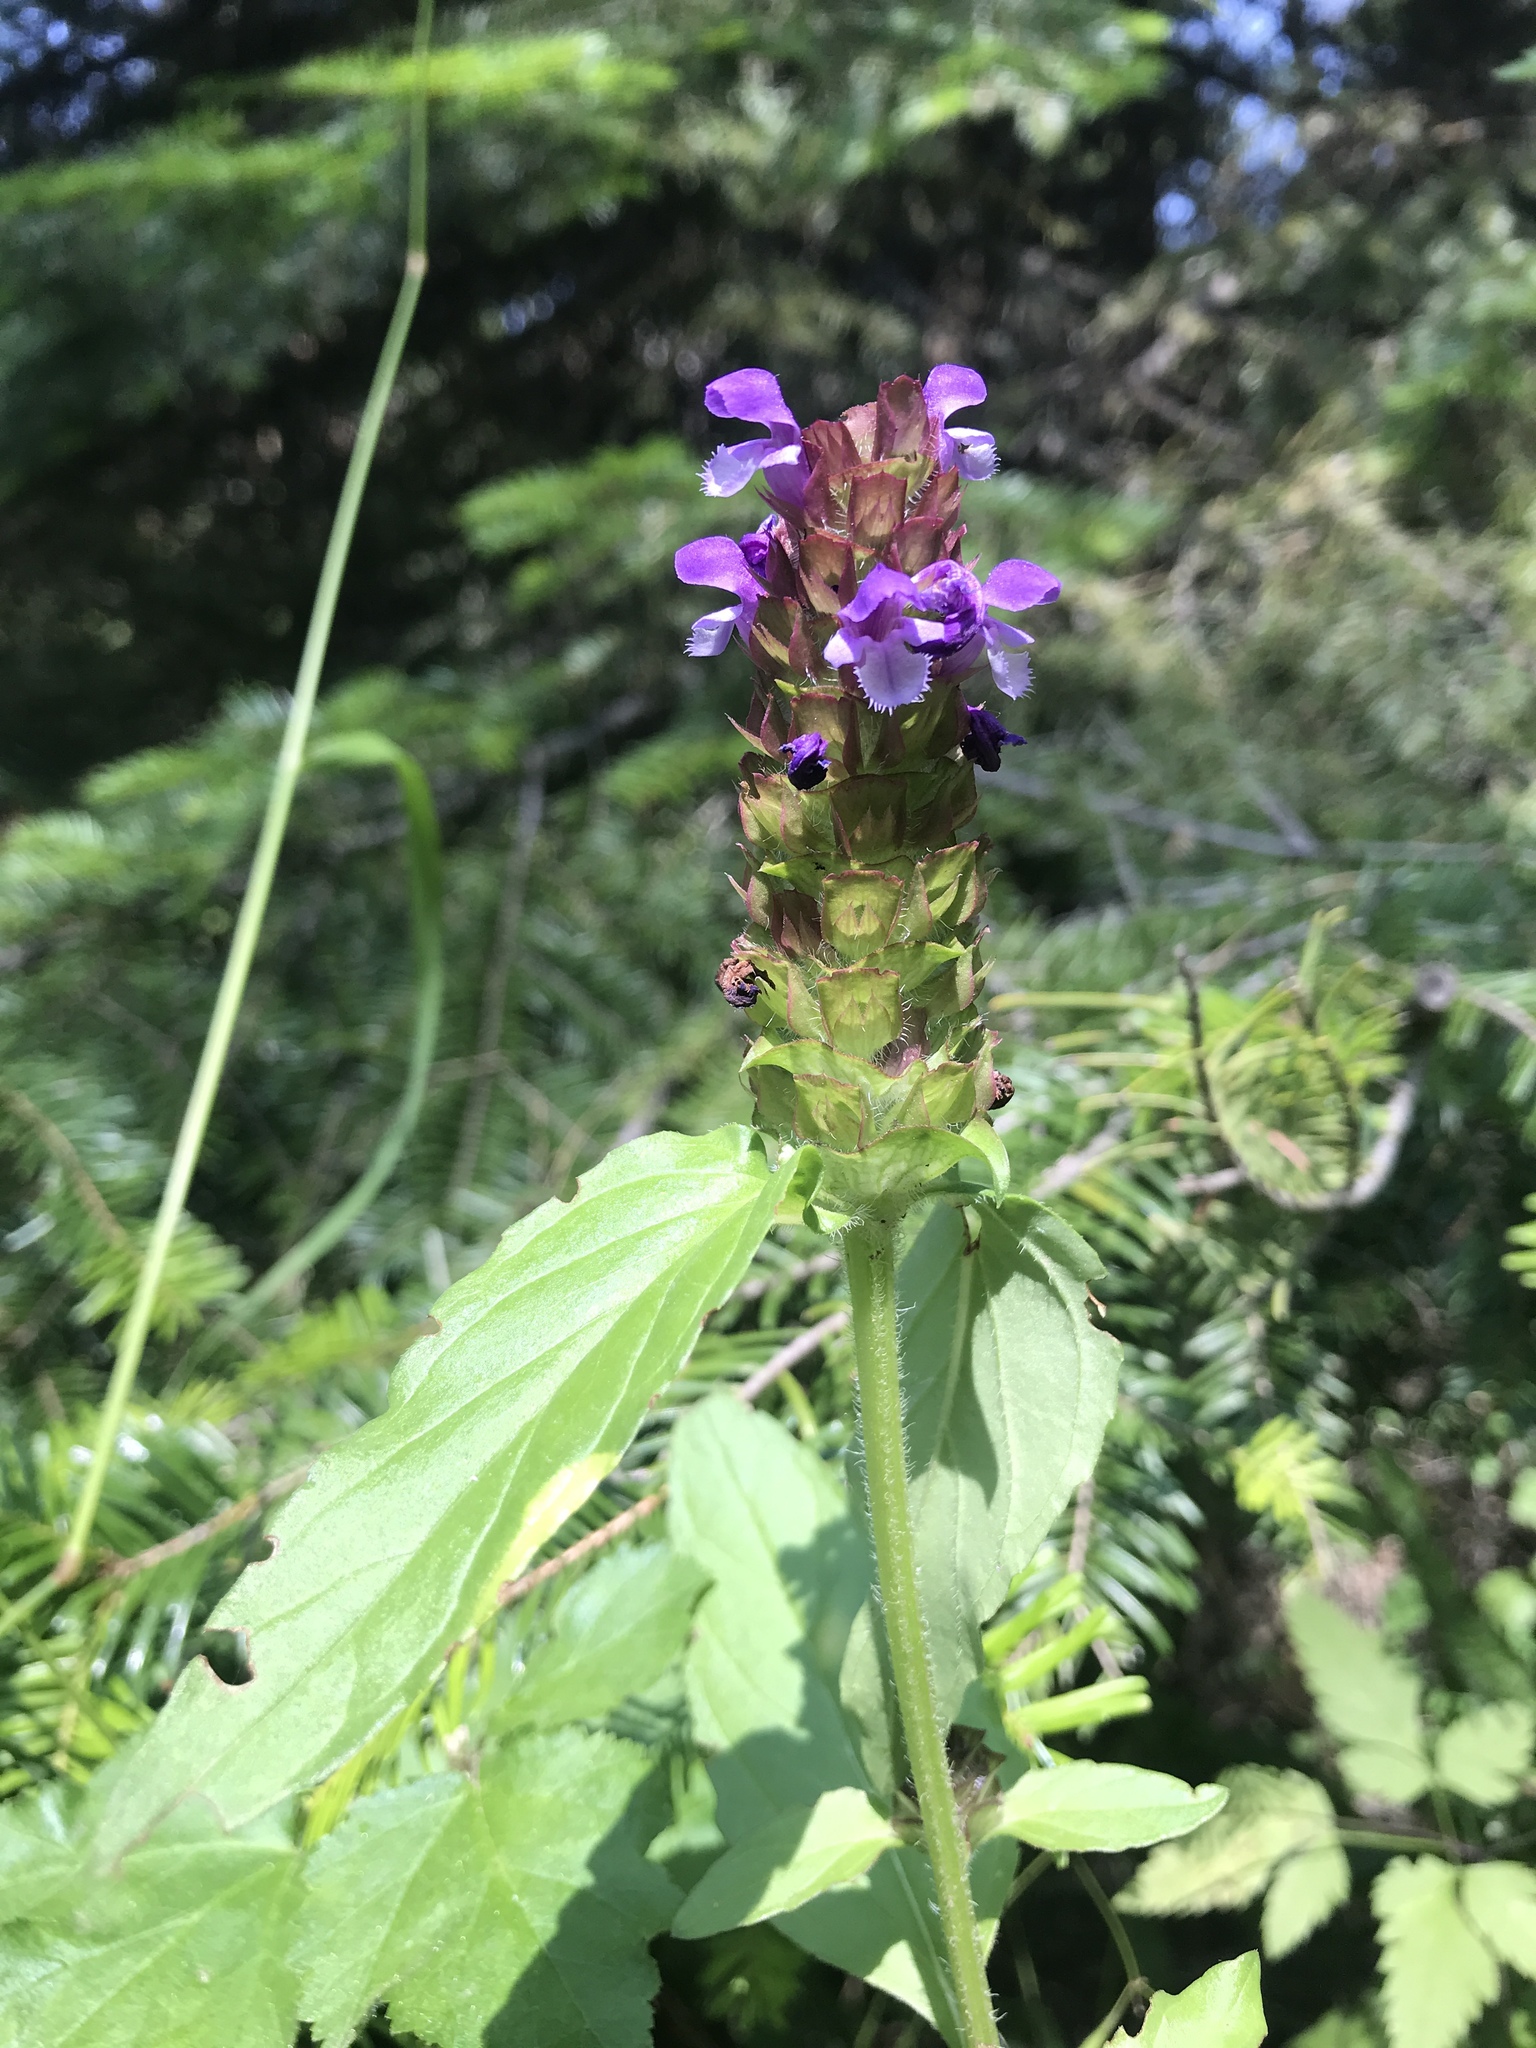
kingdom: Plantae
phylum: Tracheophyta
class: Magnoliopsida
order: Lamiales
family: Lamiaceae
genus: Prunella
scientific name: Prunella vulgaris
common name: Heal-all
